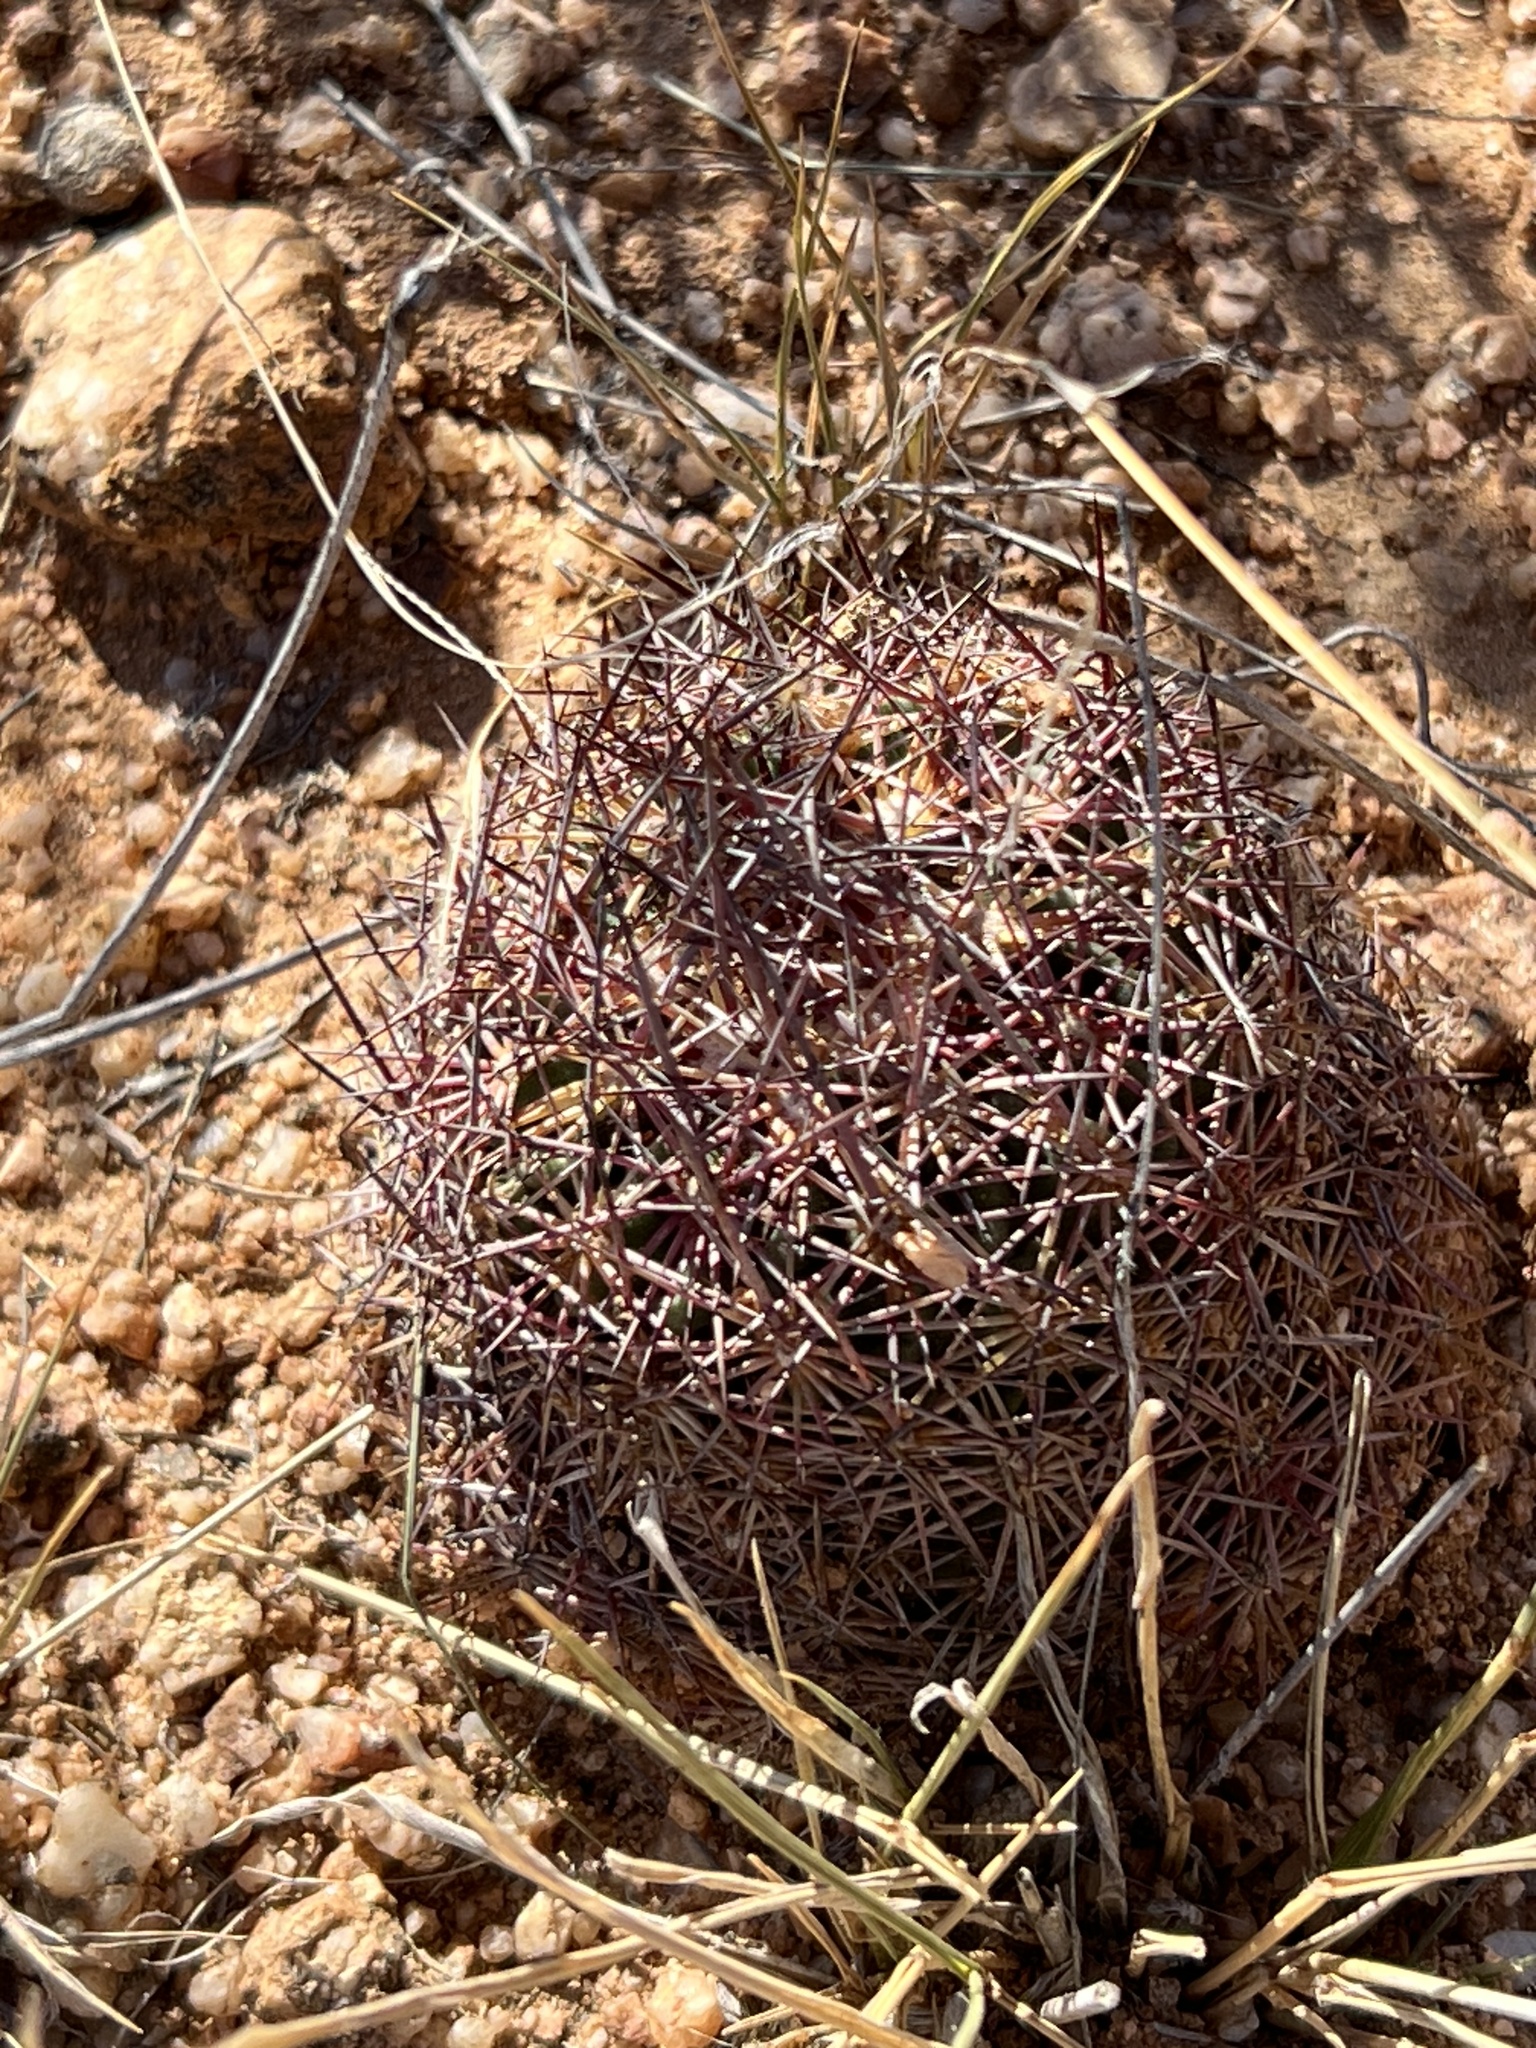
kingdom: Plantae
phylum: Tracheophyta
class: Magnoliopsida
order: Caryophyllales
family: Cactaceae
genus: Sclerocactus
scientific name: Sclerocactus johnsonii
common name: Eight-spine fishhook cactus
